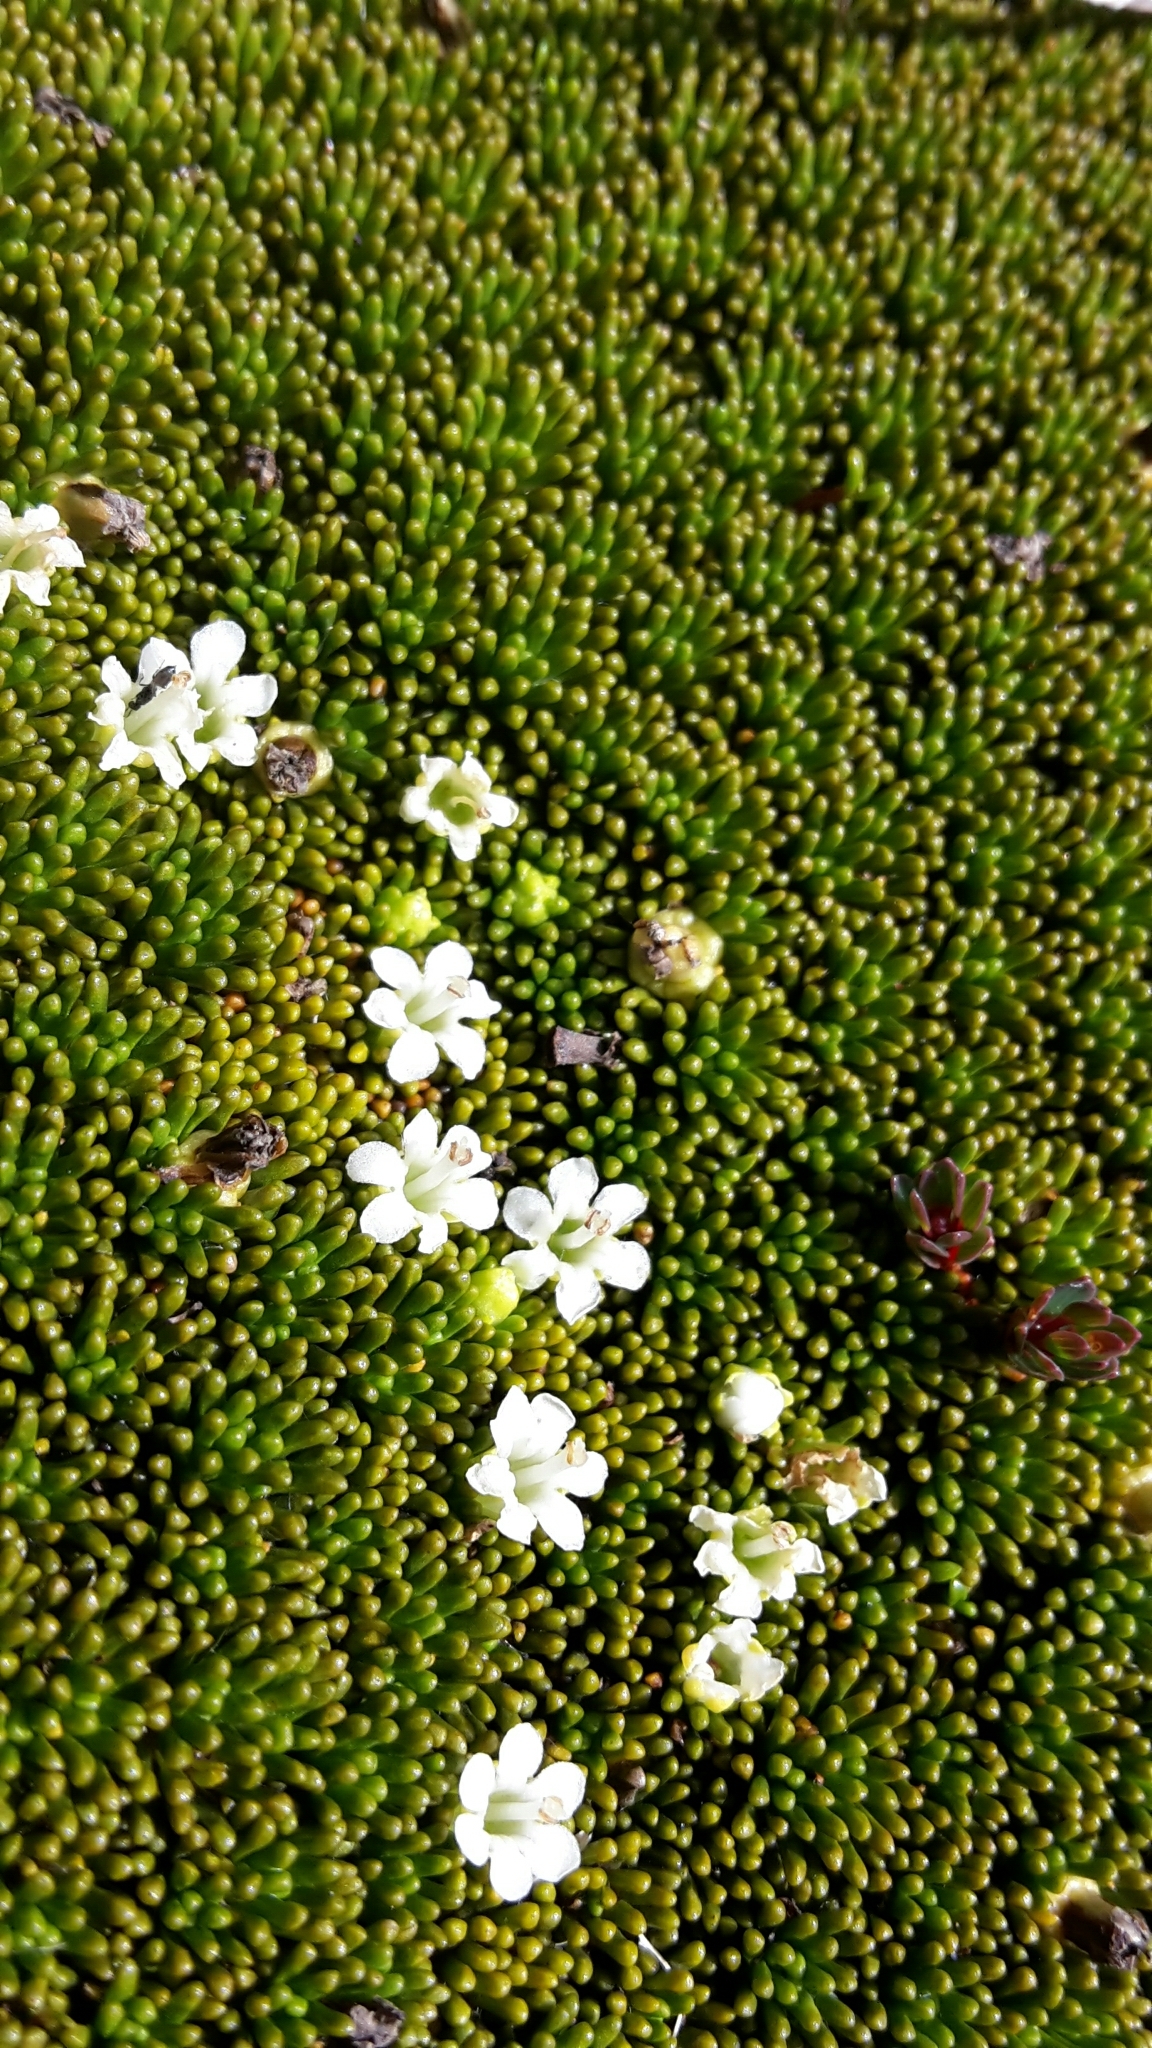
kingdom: Plantae
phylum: Tracheophyta
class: Magnoliopsida
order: Asterales
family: Stylidiaceae
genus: Phyllachne
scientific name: Phyllachne colensoi
